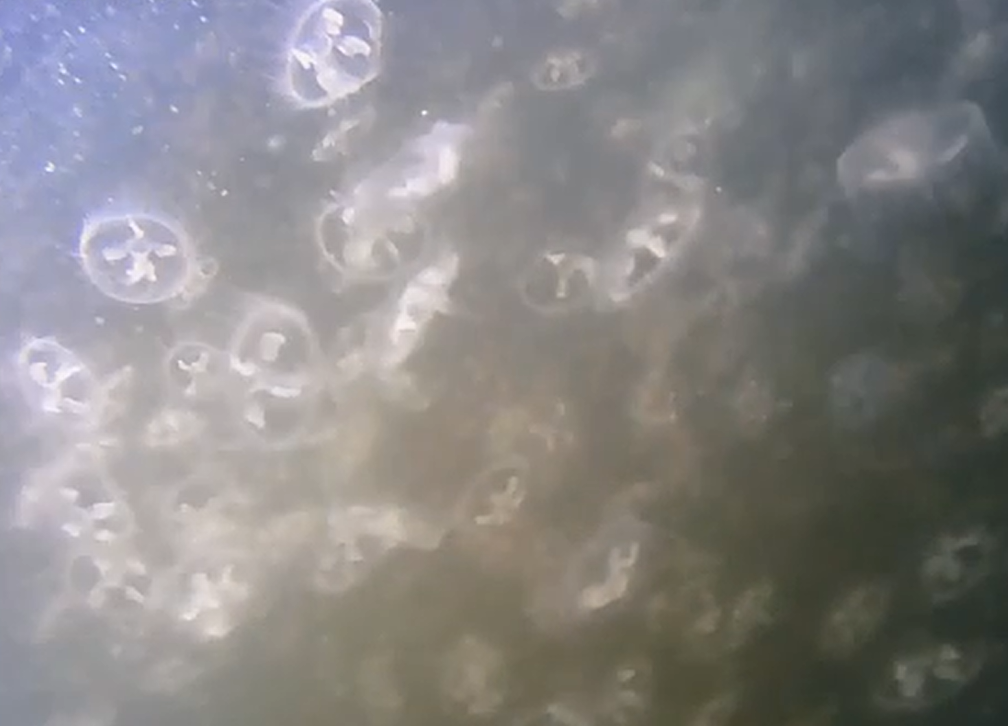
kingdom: Animalia
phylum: Cnidaria
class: Hydrozoa
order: Limnomedusae
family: Olindiidae
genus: Craspedacusta
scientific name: Craspedacusta sowerbii
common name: Freshwater jellyfish
